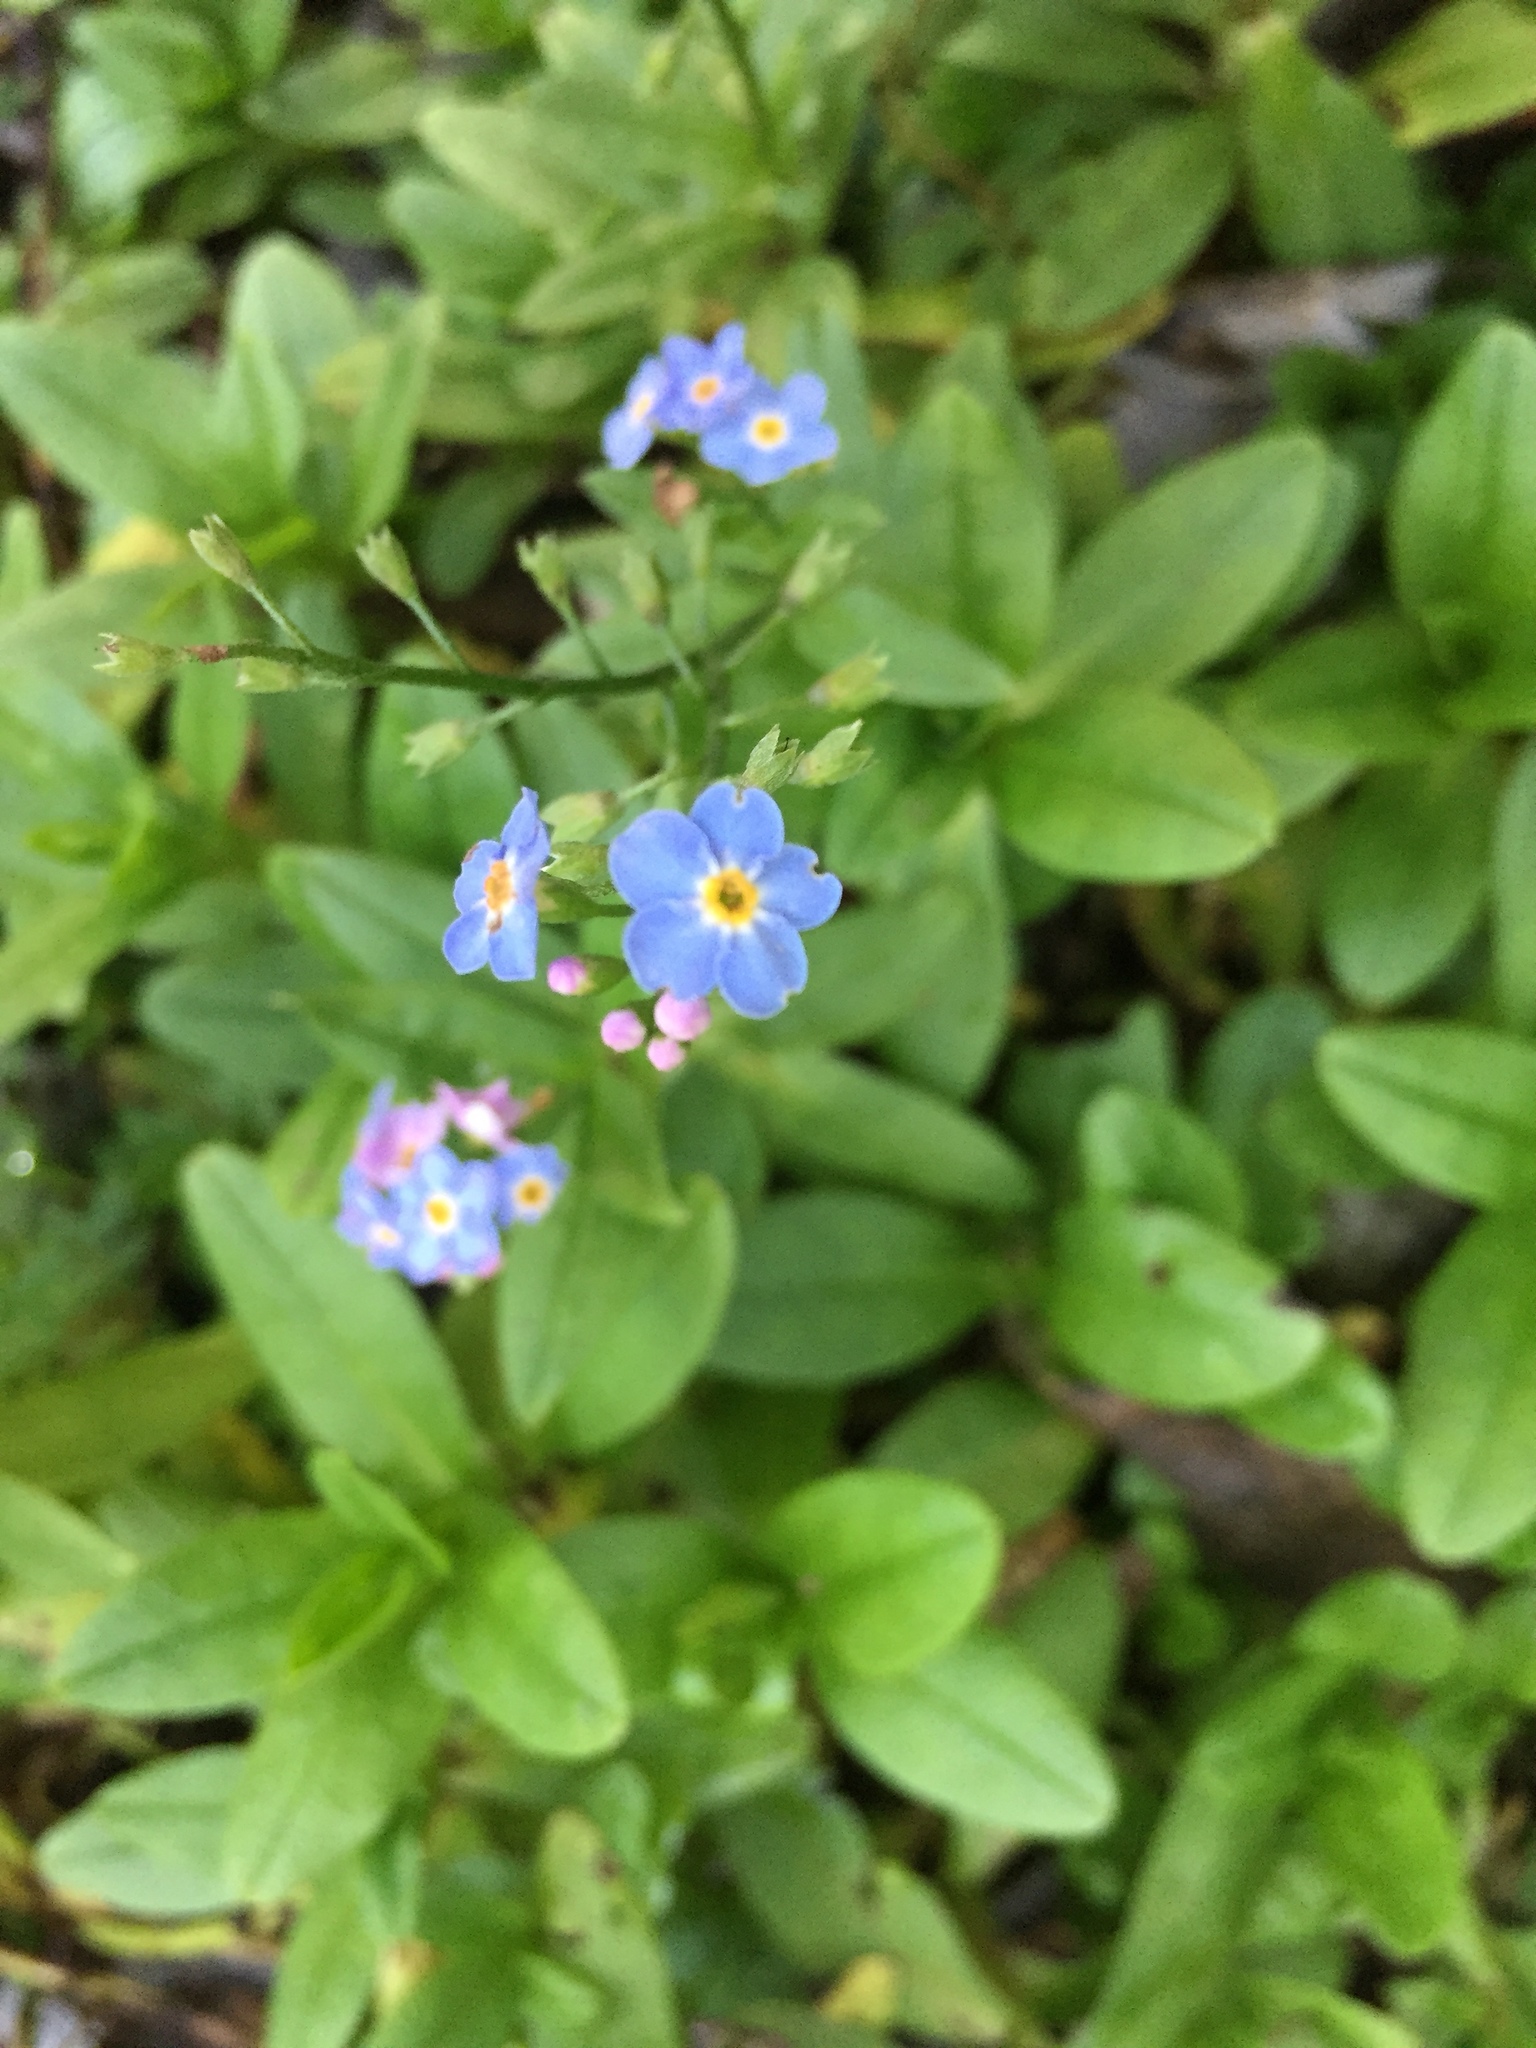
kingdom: Plantae
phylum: Tracheophyta
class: Magnoliopsida
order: Boraginales
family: Boraginaceae
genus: Myosotis
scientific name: Myosotis sylvatica
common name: Wood forget-me-not
